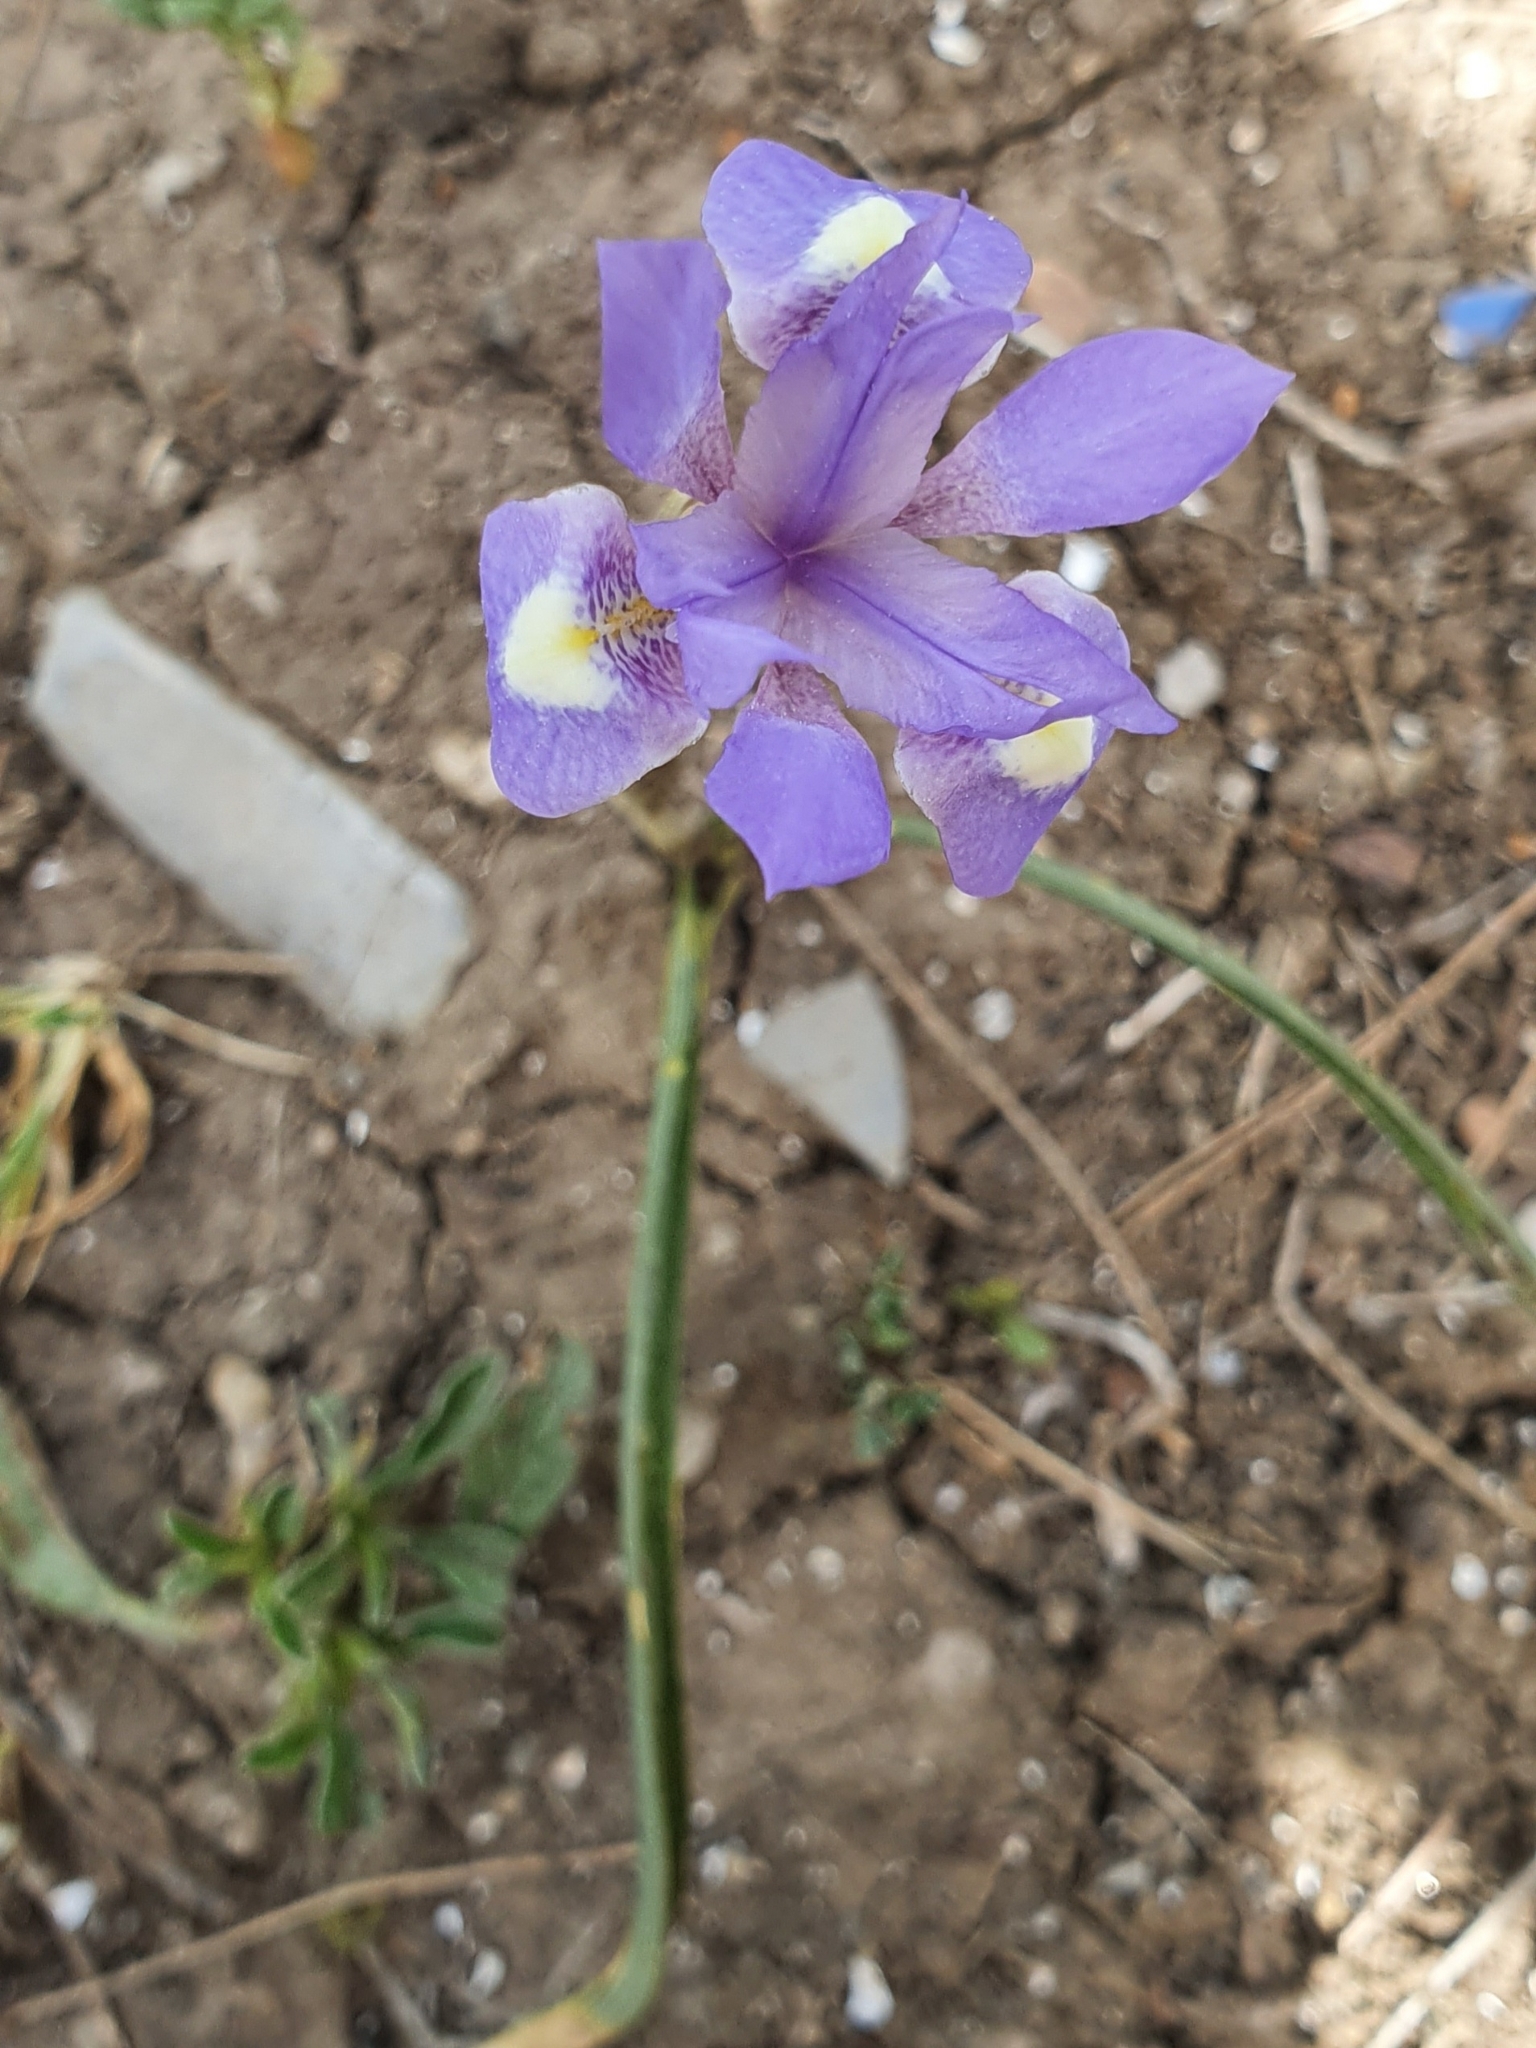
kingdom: Plantae
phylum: Tracheophyta
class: Liliopsida
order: Asparagales
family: Iridaceae
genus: Moraea
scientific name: Moraea sisyrinchium
